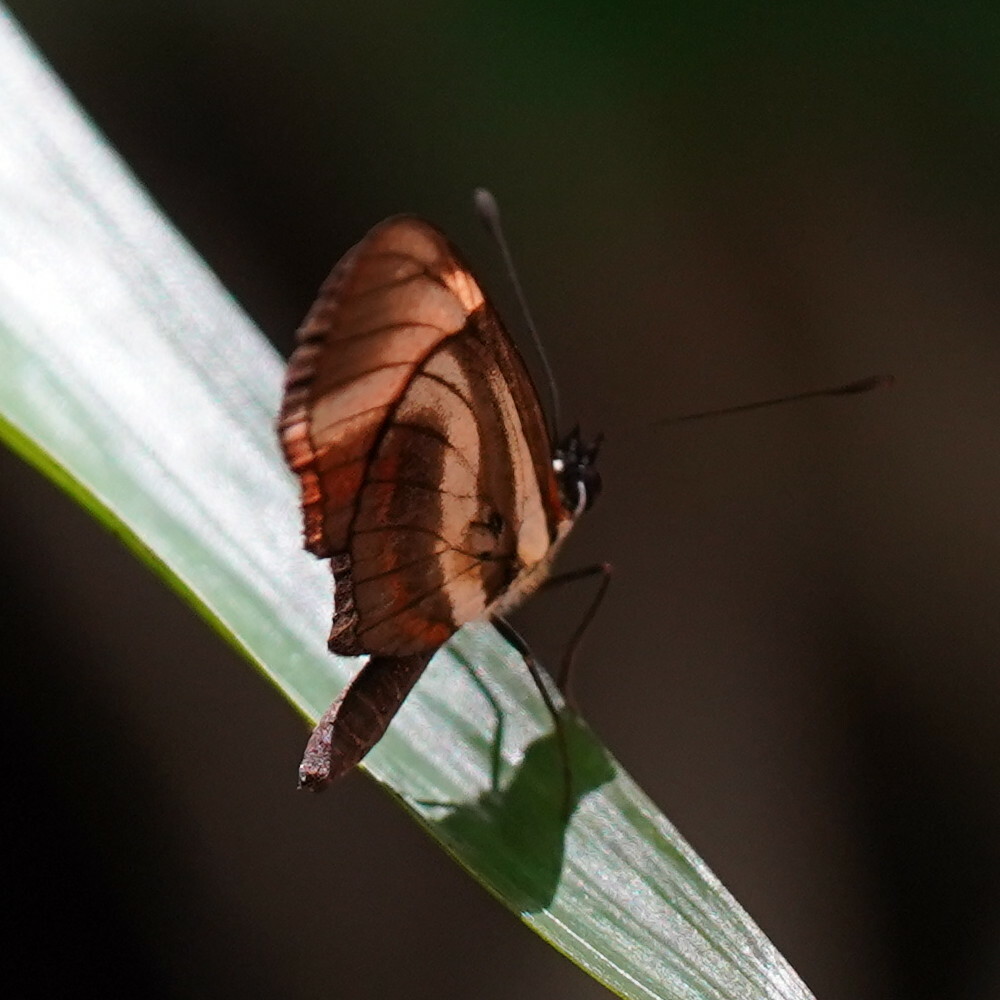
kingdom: Animalia
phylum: Arthropoda
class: Insecta
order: Lepidoptera
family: Nymphalidae
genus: Eresia
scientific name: Eresia lansdorfi
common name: Lansdorf's crescent
